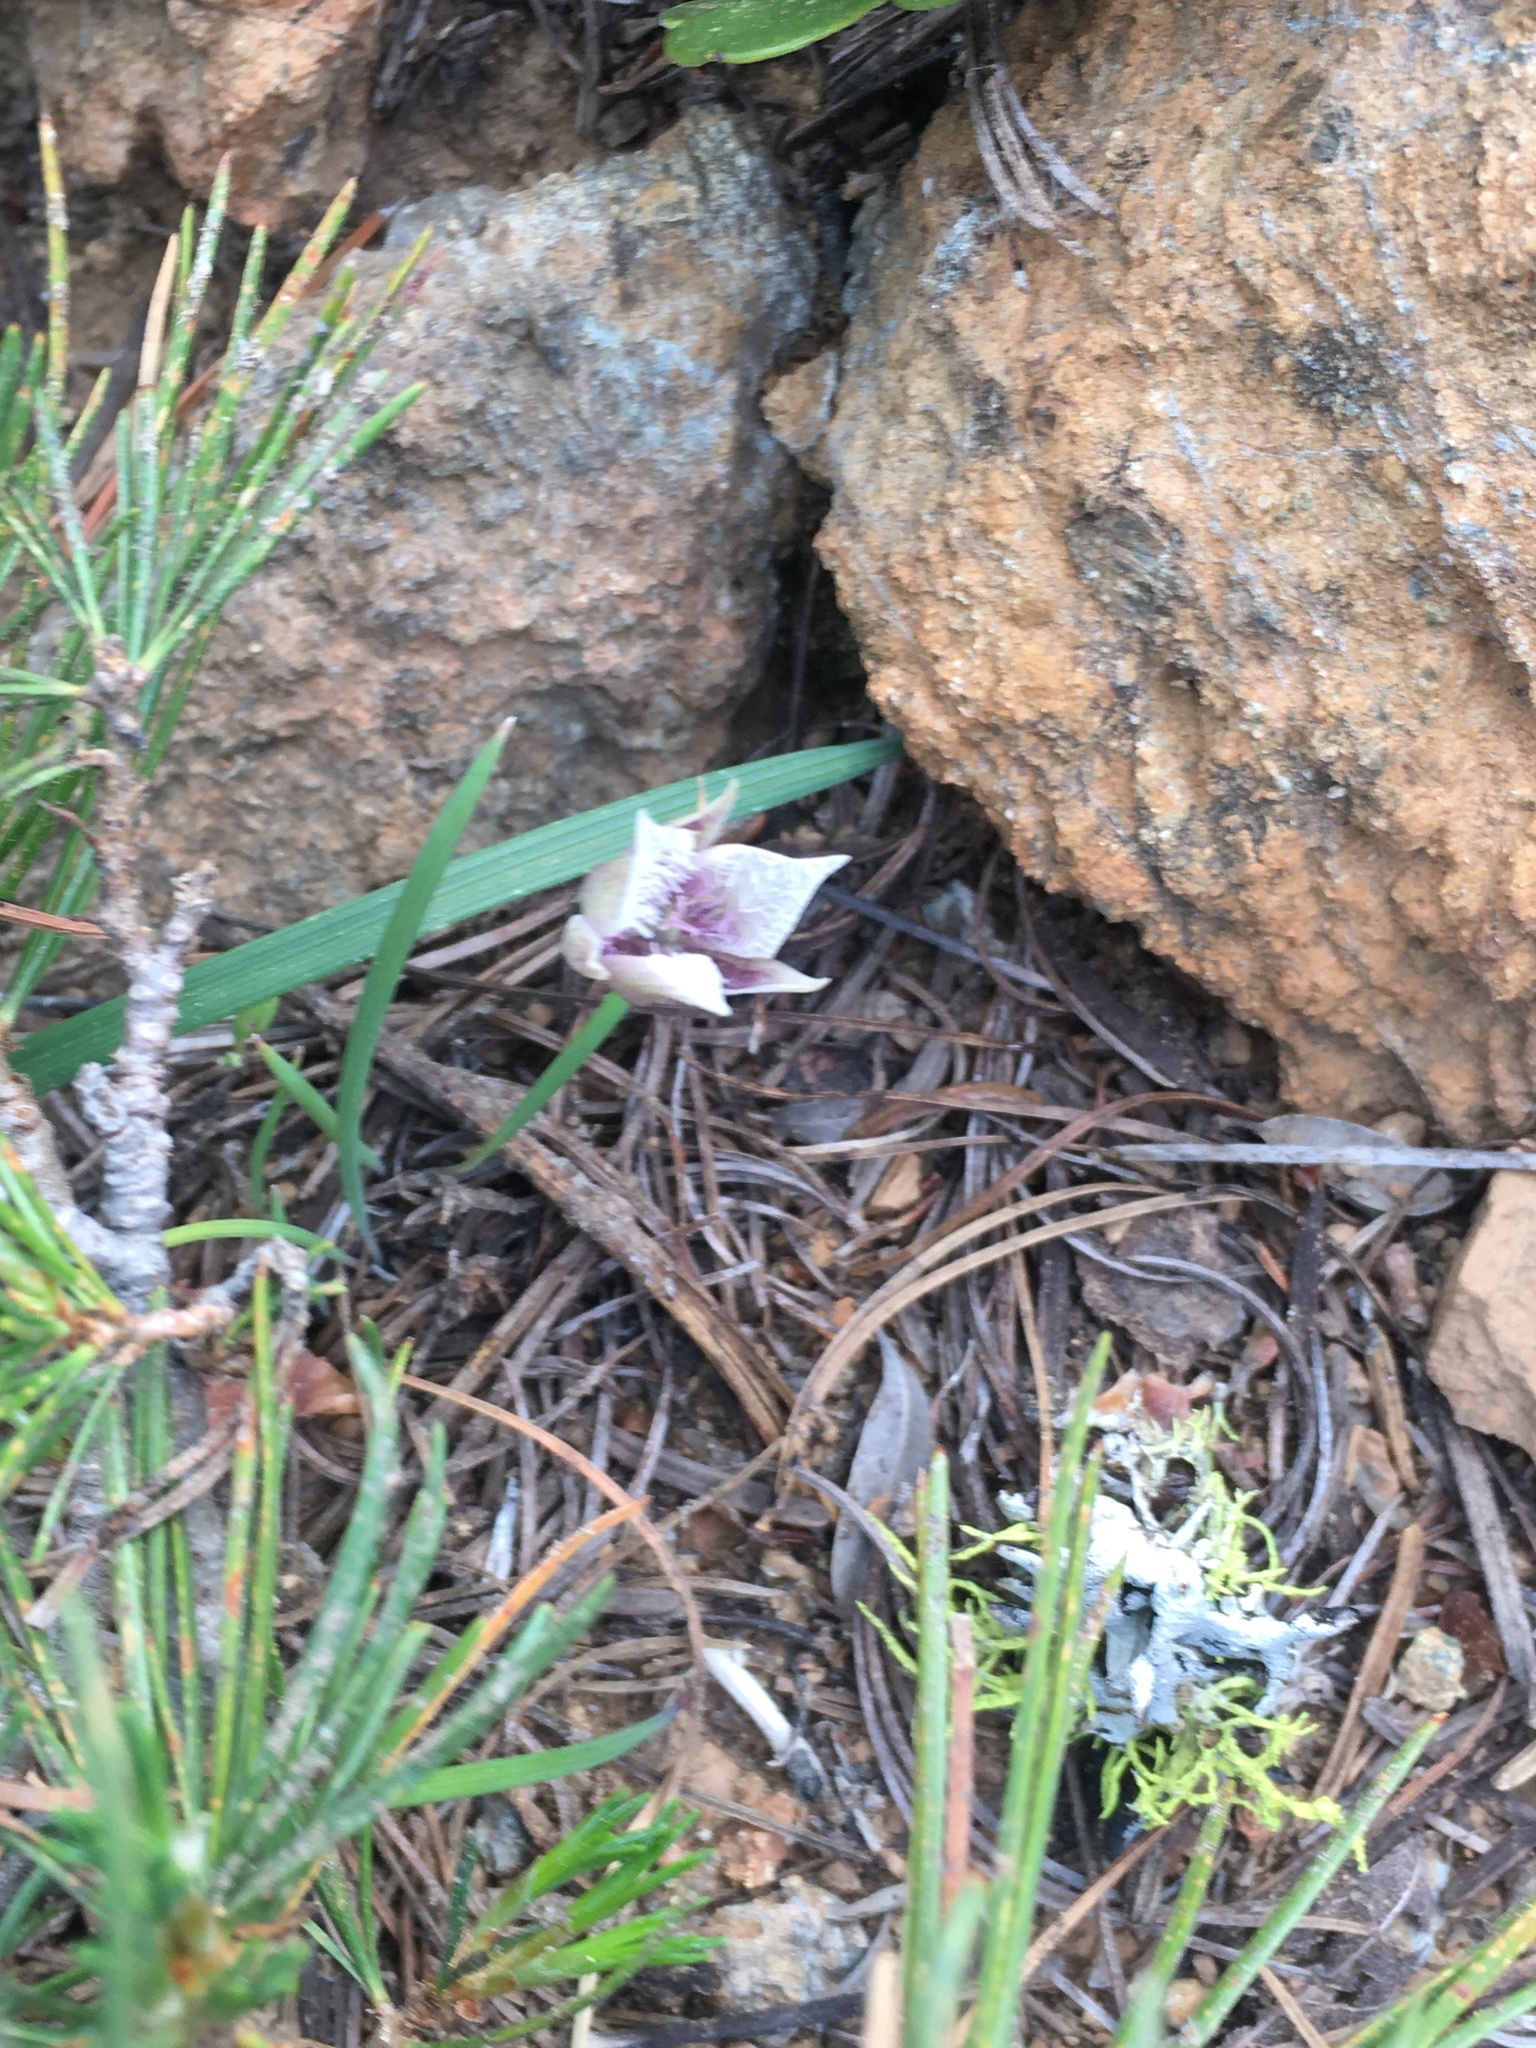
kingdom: Plantae
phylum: Tracheophyta
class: Liliopsida
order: Liliales
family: Liliaceae
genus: Calochortus
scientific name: Calochortus elegans
